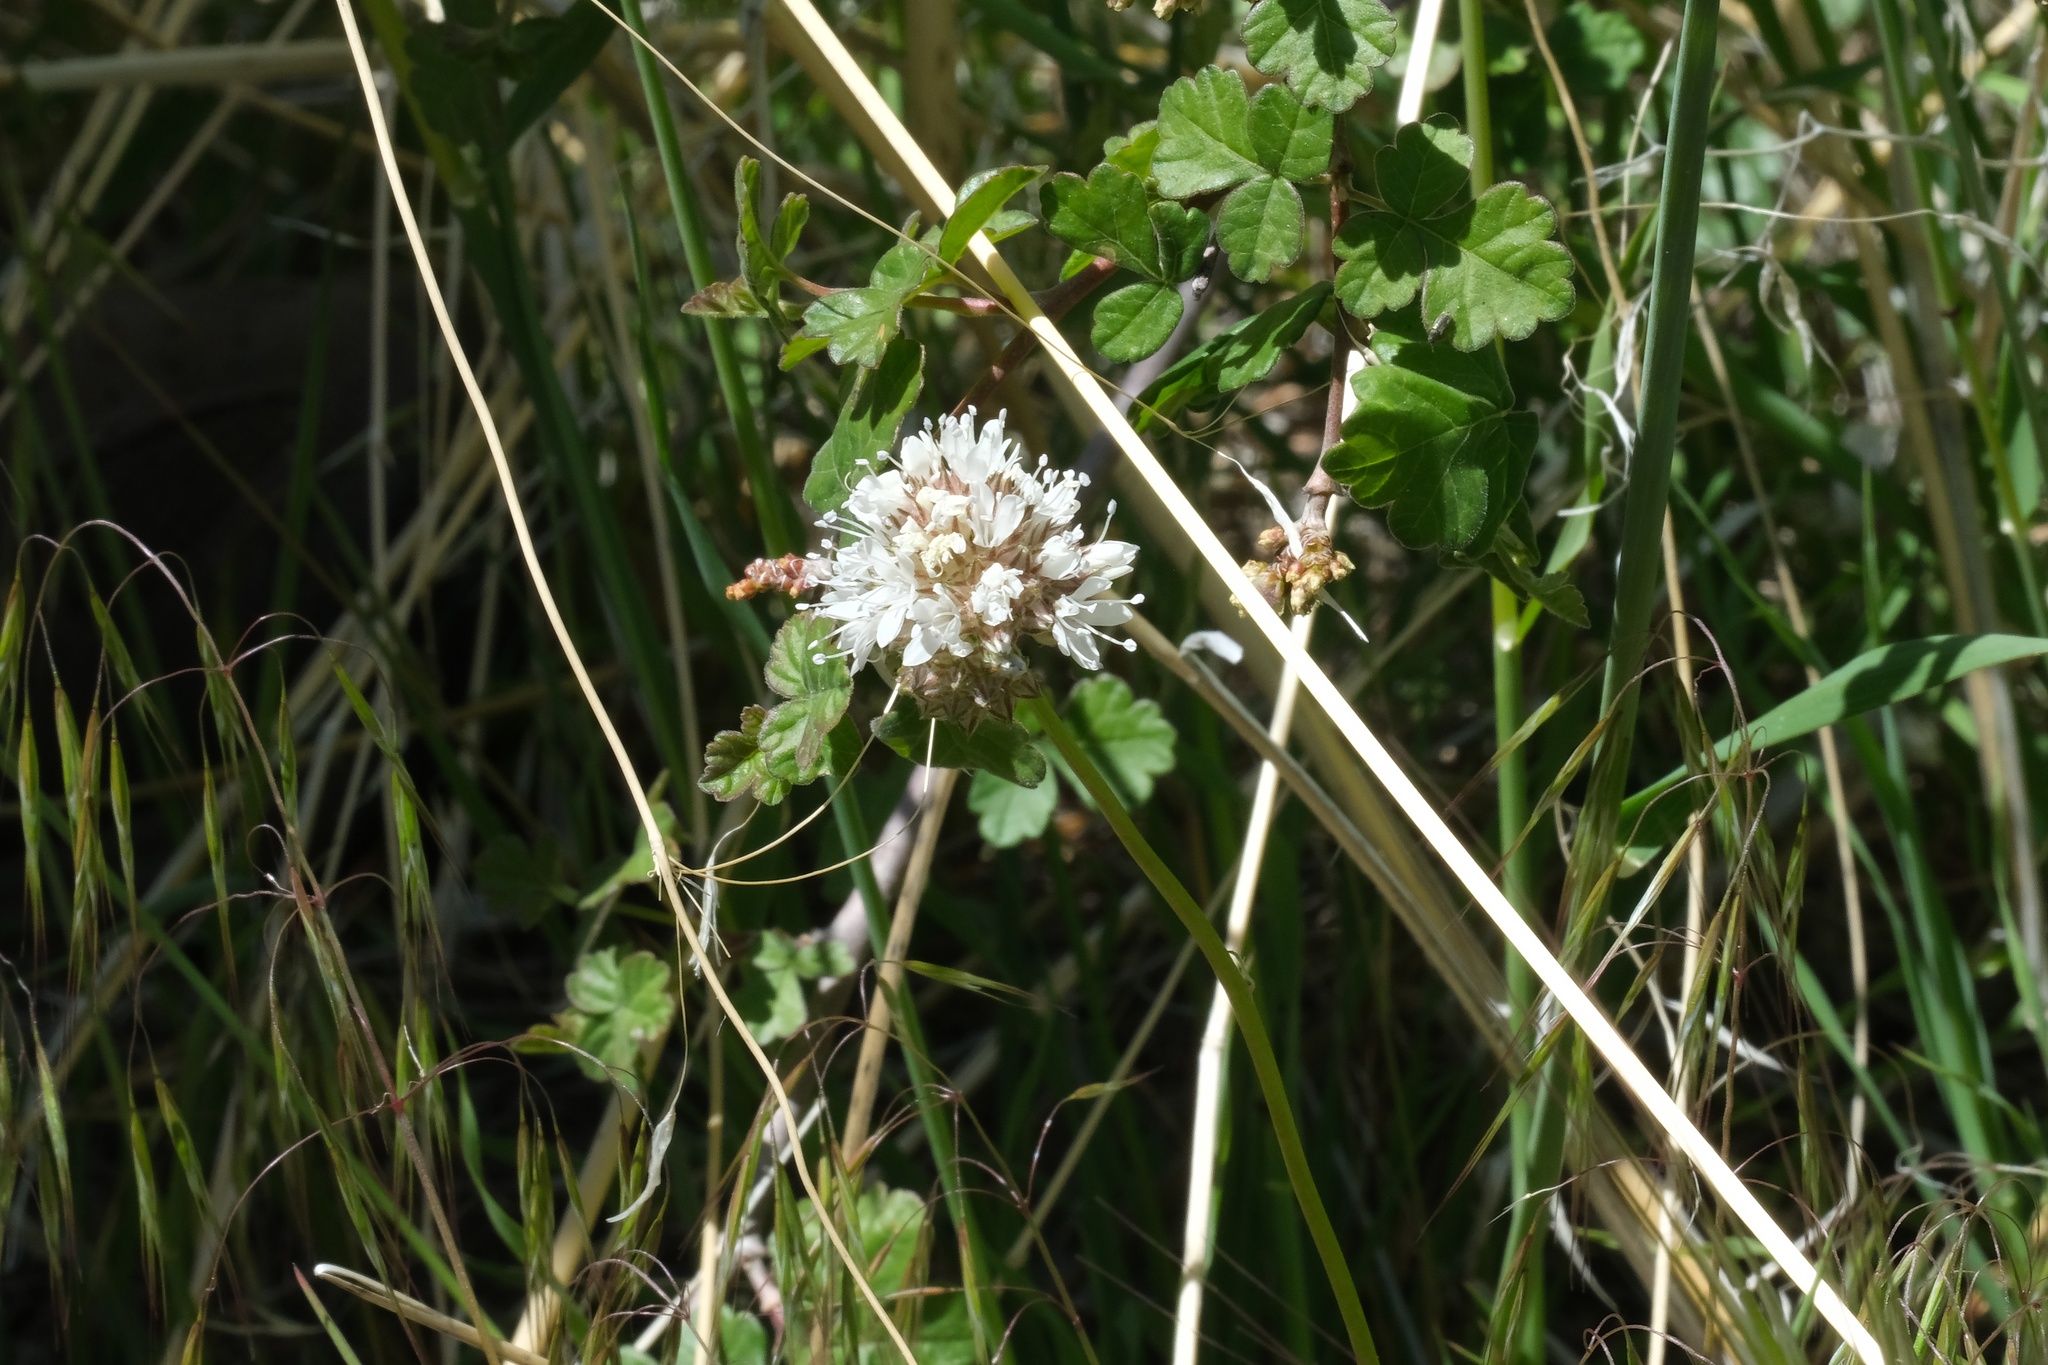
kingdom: Plantae
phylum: Tracheophyta
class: Magnoliopsida
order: Ericales
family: Polemoniaceae
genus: Gilia
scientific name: Gilia capitata
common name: Bluehead gilia
